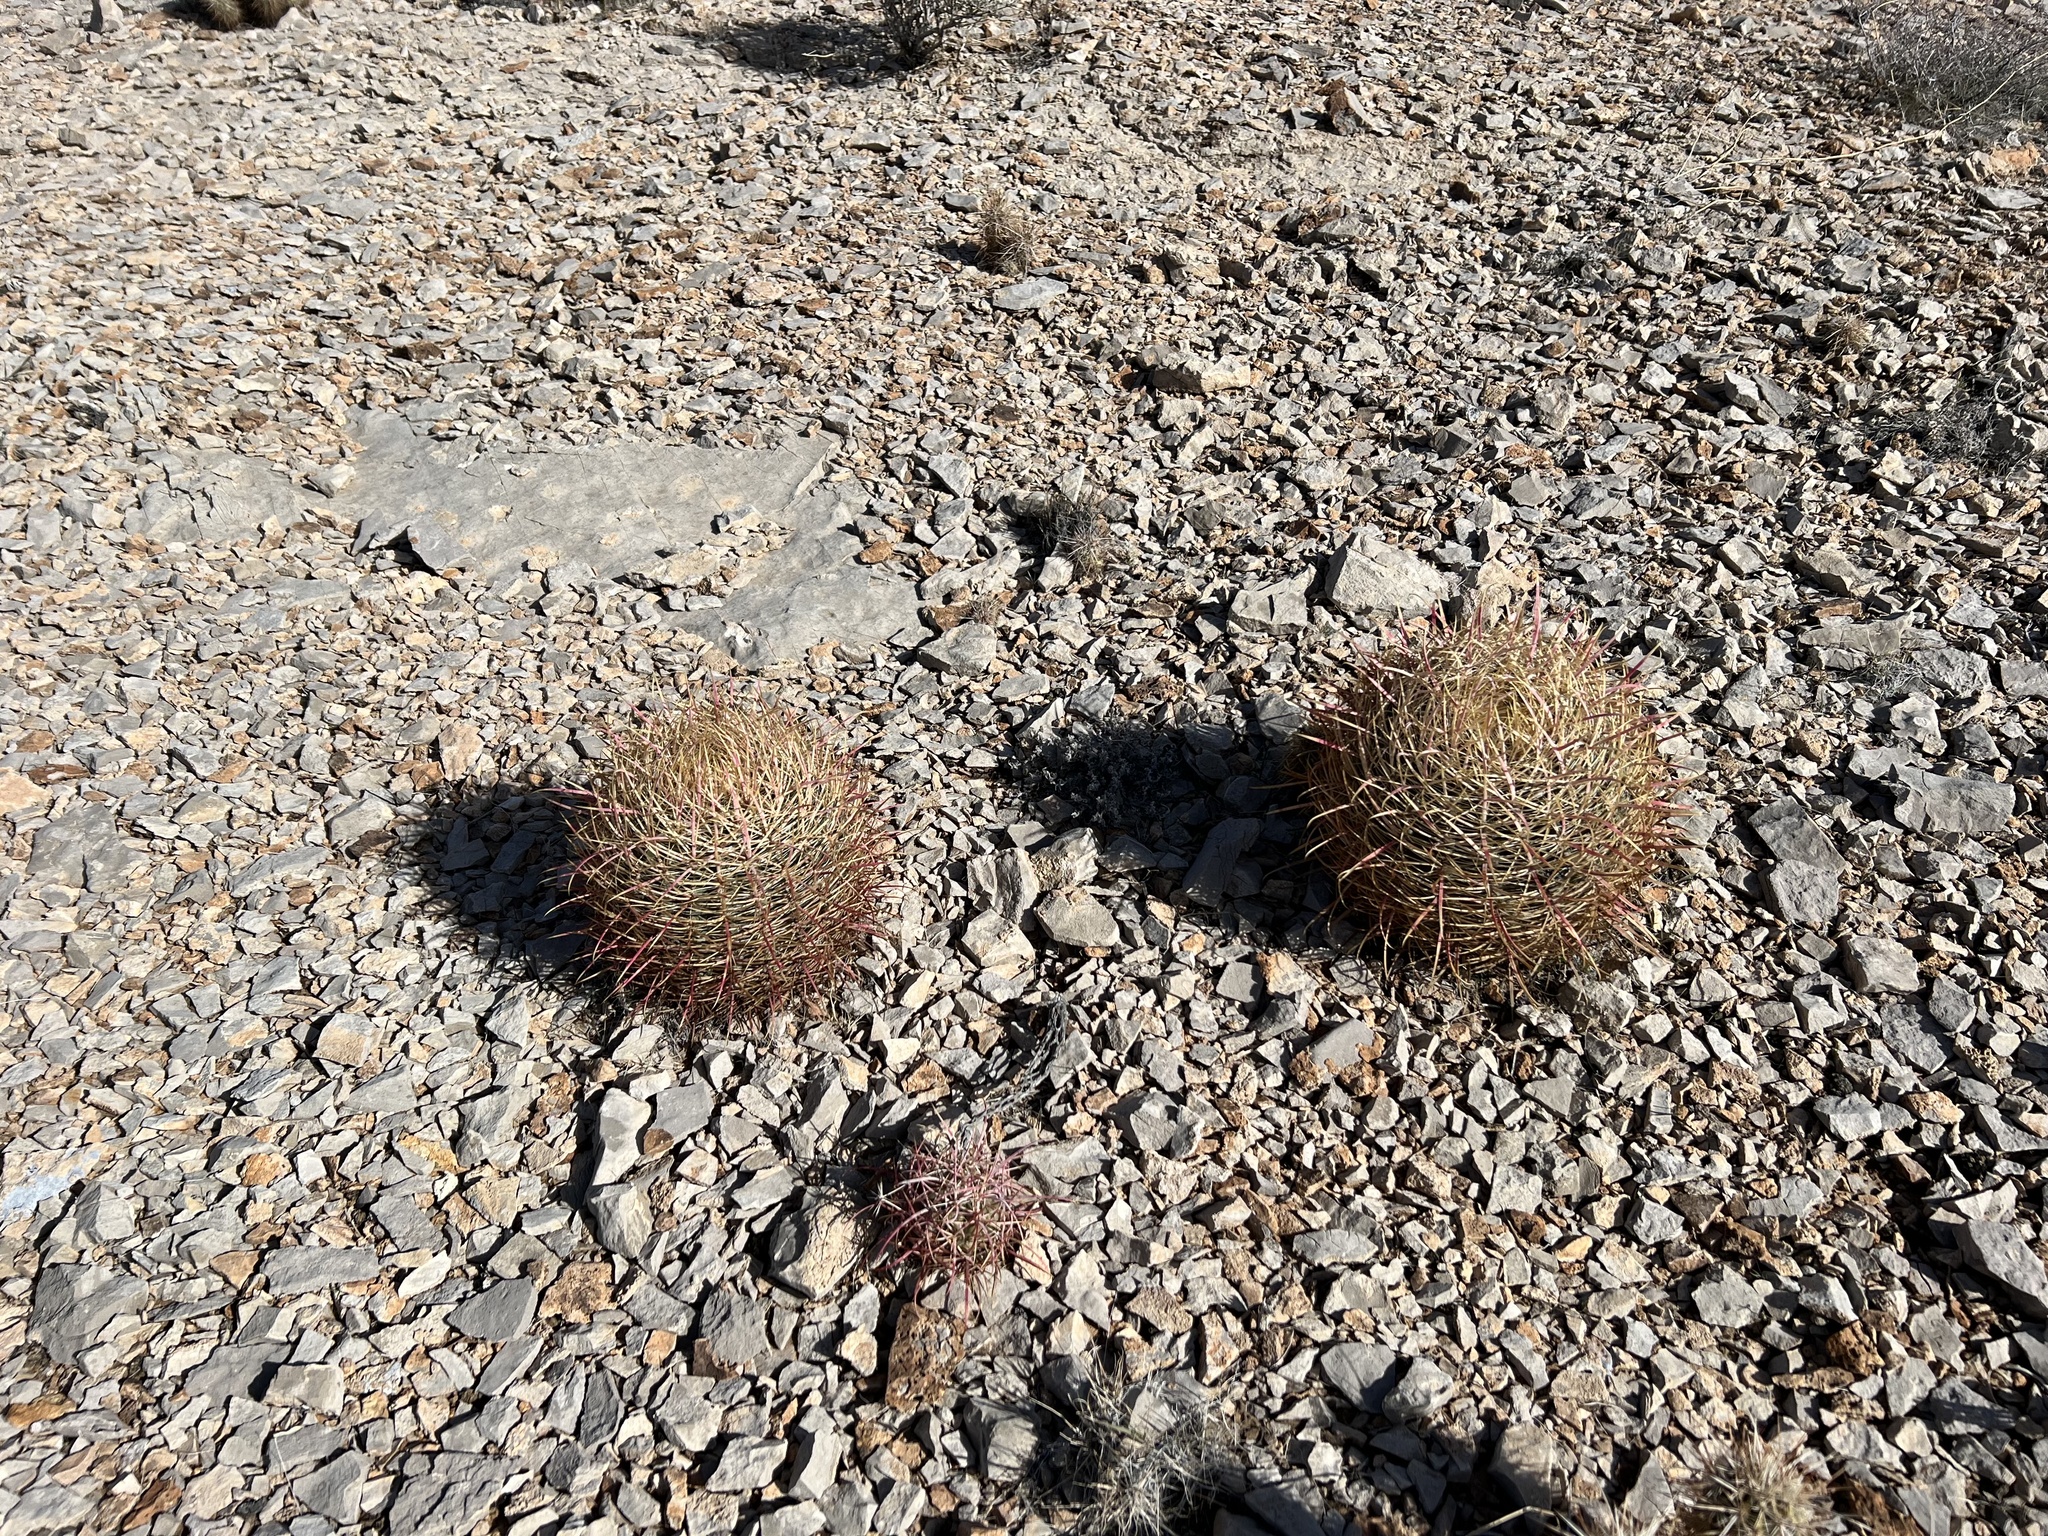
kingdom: Plantae
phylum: Tracheophyta
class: Magnoliopsida
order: Caryophyllales
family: Cactaceae
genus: Ferocactus
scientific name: Ferocactus cylindraceus
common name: California barrel cactus
